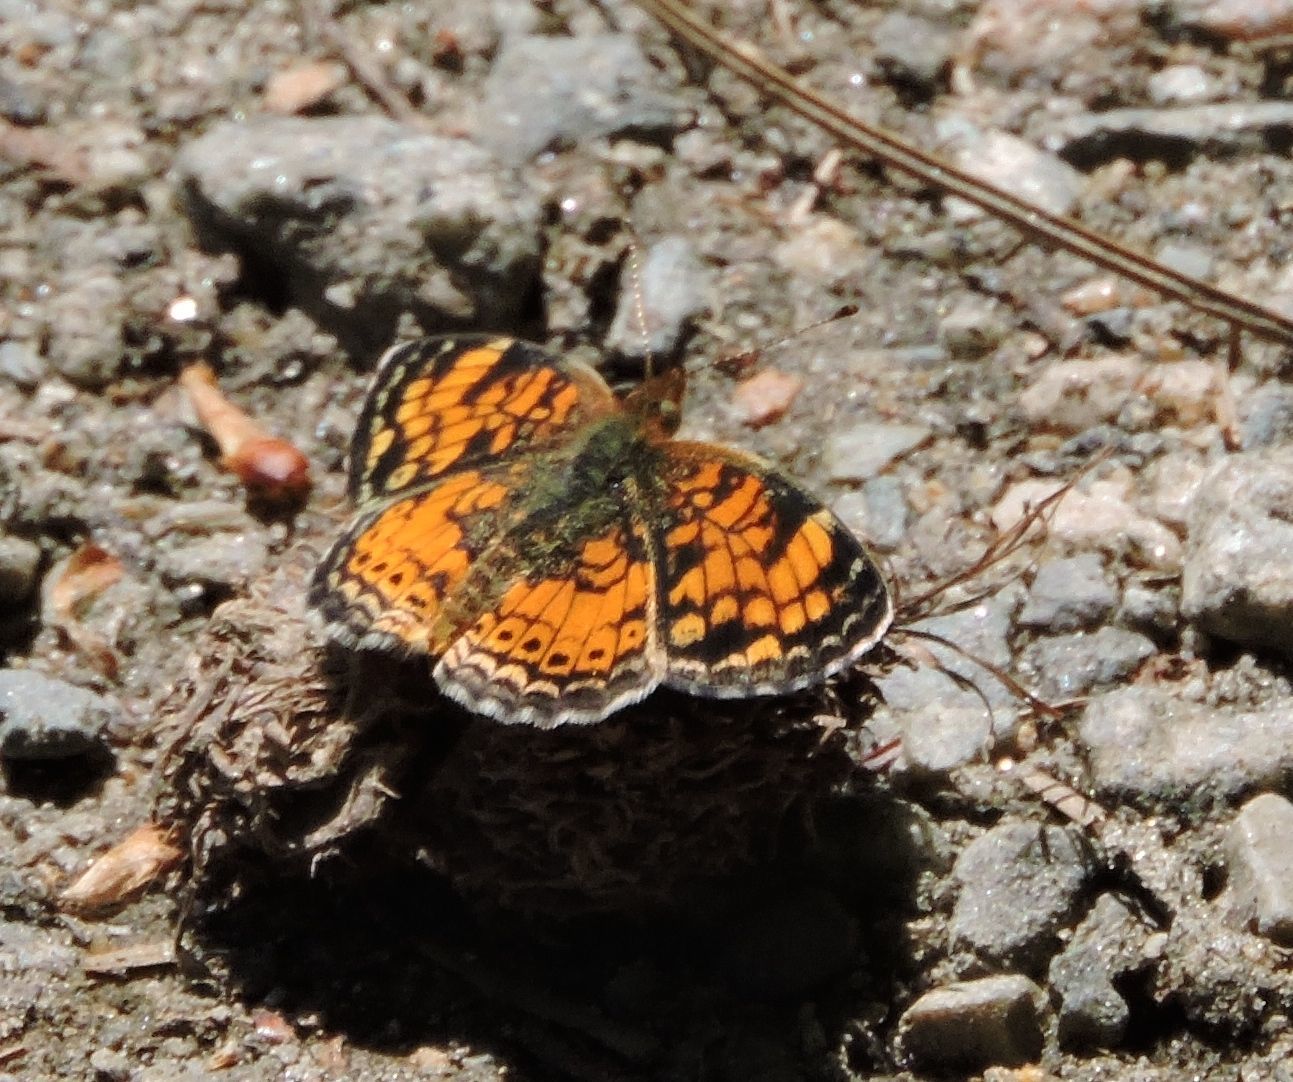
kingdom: Animalia
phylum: Arthropoda
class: Insecta
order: Lepidoptera
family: Nymphalidae
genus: Phyciodes
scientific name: Phyciodes tharos
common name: Pearl crescent
